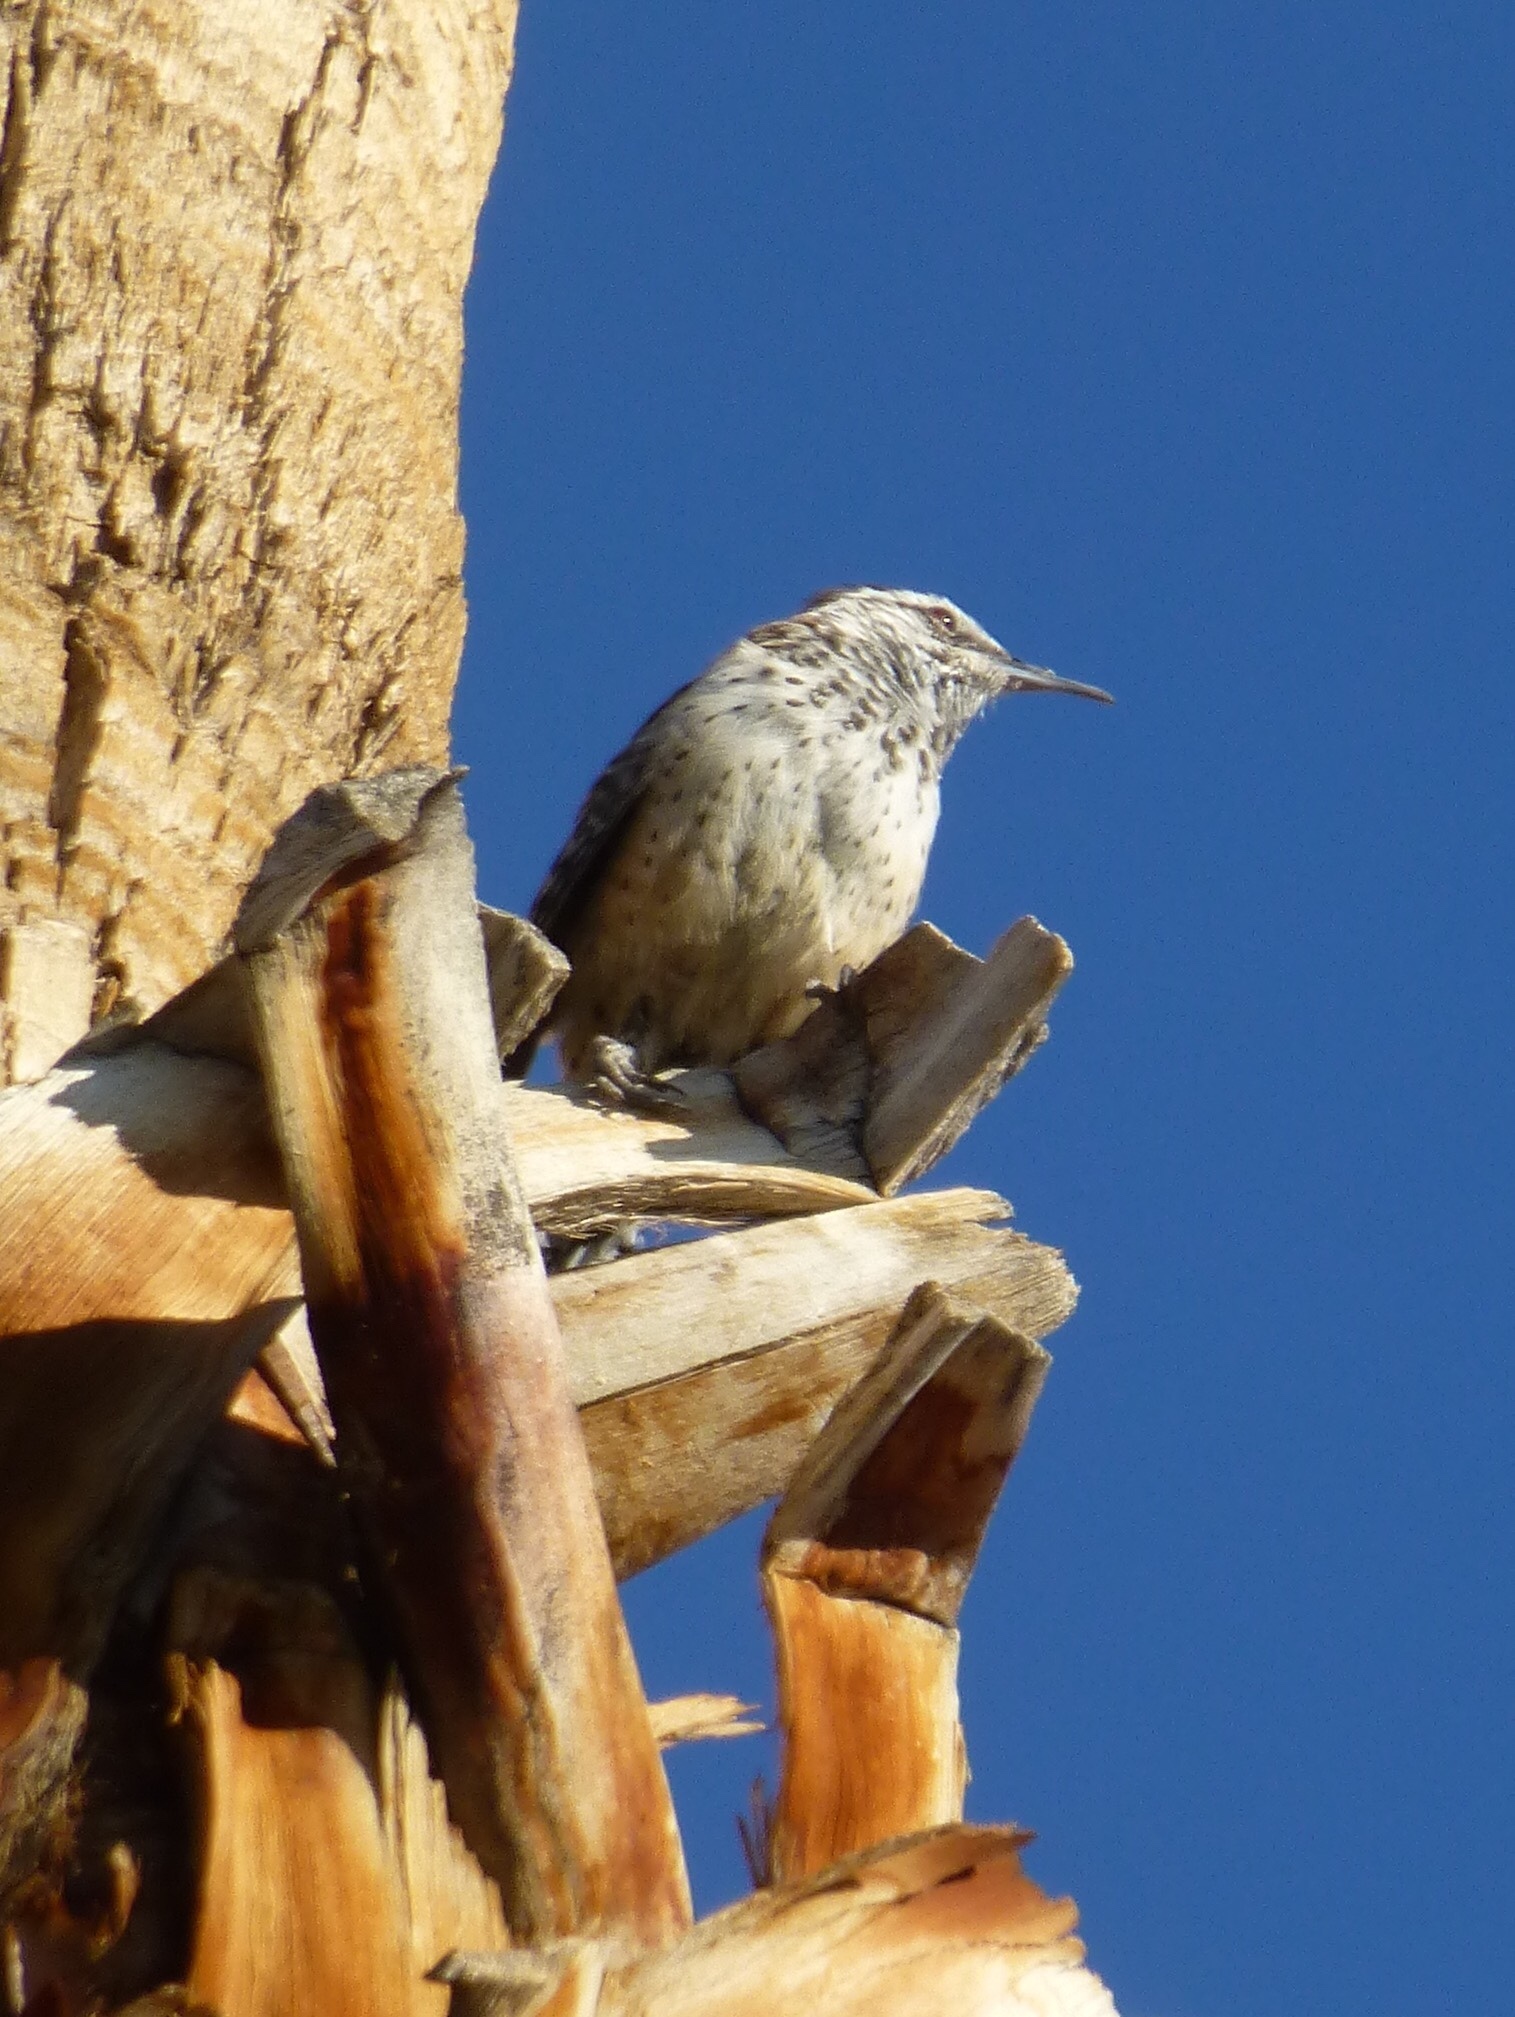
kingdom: Animalia
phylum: Chordata
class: Aves
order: Passeriformes
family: Troglodytidae
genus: Campylorhynchus
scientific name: Campylorhynchus brunneicapillus
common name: Cactus wren
